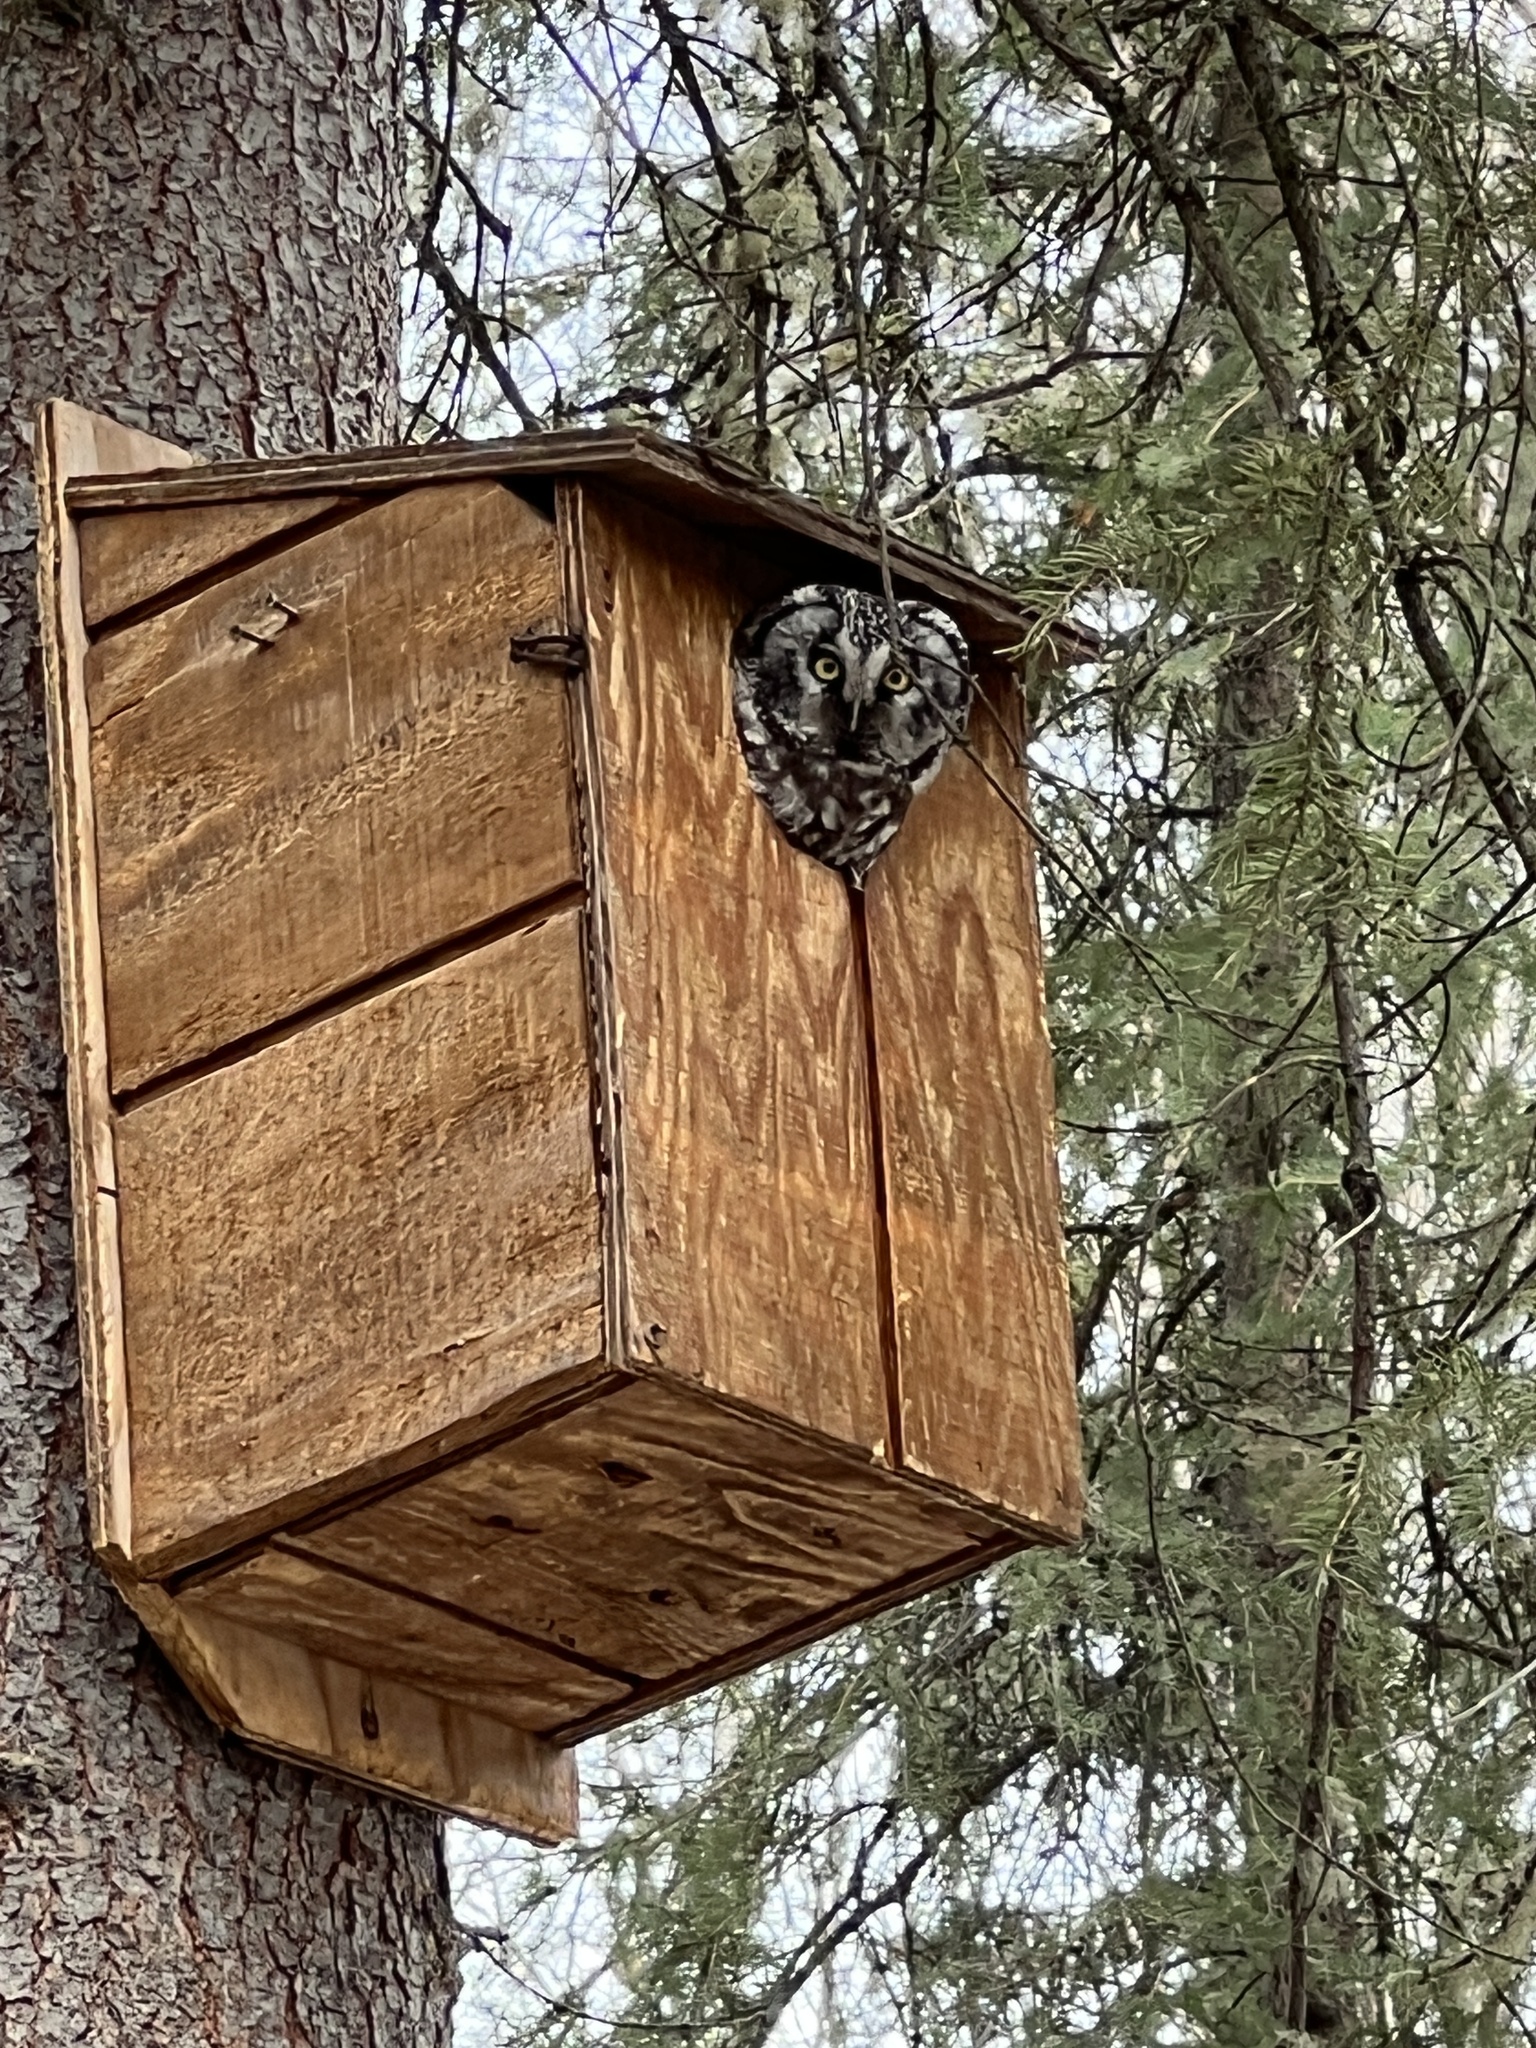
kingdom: Animalia
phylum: Chordata
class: Aves
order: Strigiformes
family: Strigidae
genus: Aegolius
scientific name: Aegolius funereus
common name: Boreal owl
